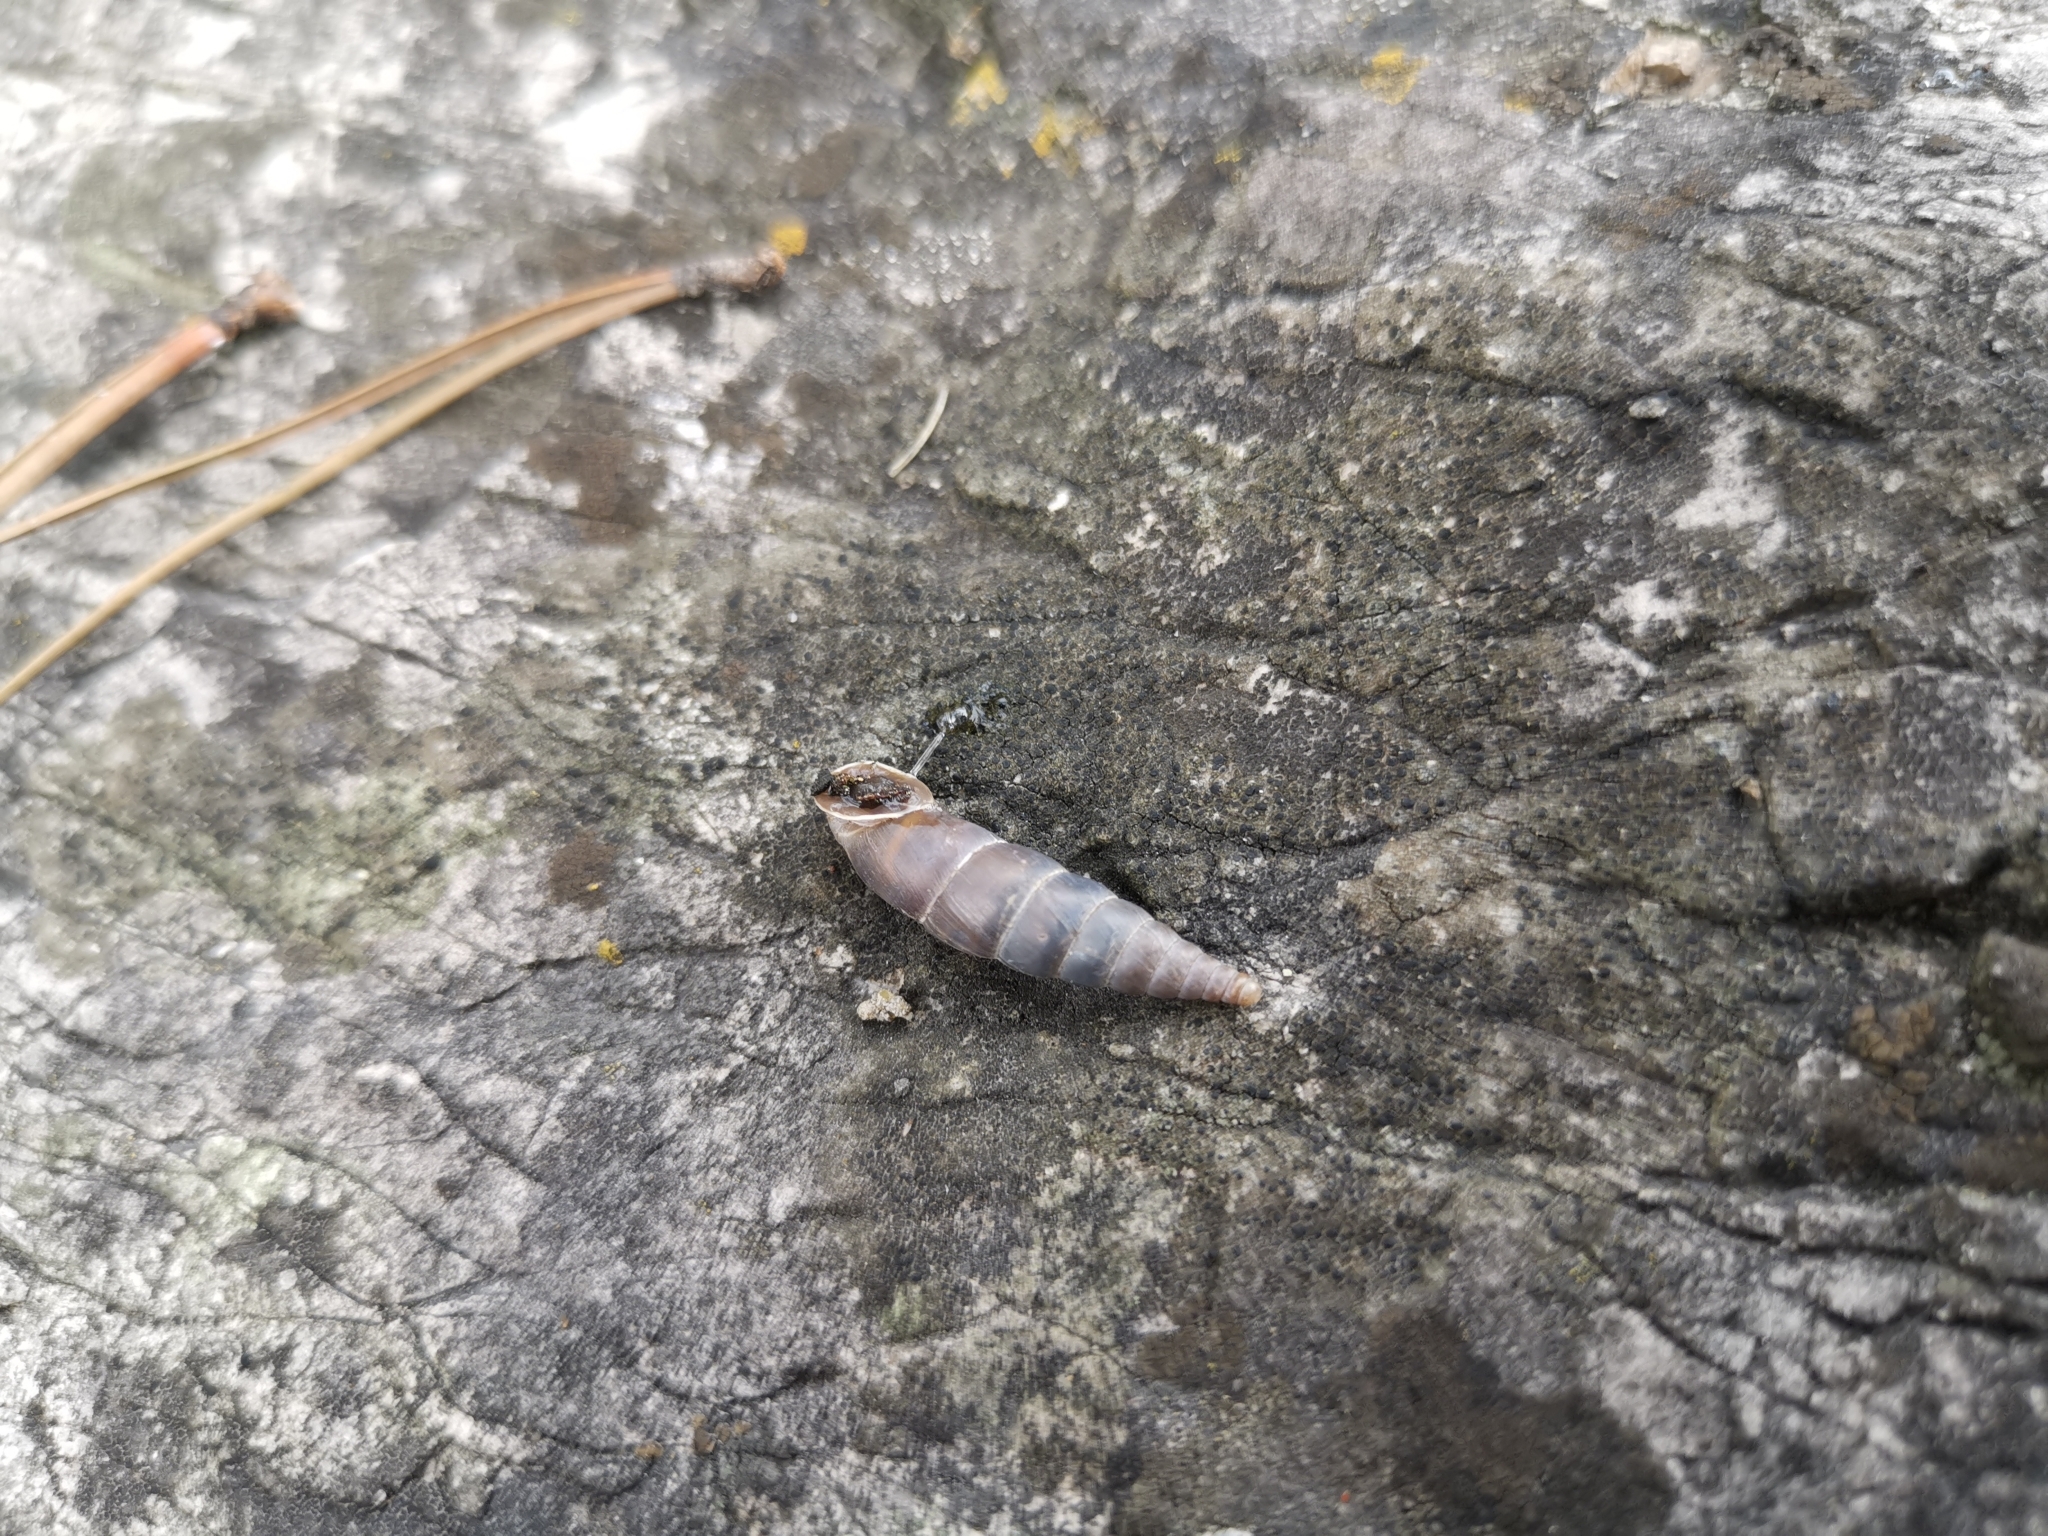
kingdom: Animalia
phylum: Mollusca
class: Gastropoda
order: Stylommatophora
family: Clausiliidae
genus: Herilla
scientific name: Herilla bosniensis
